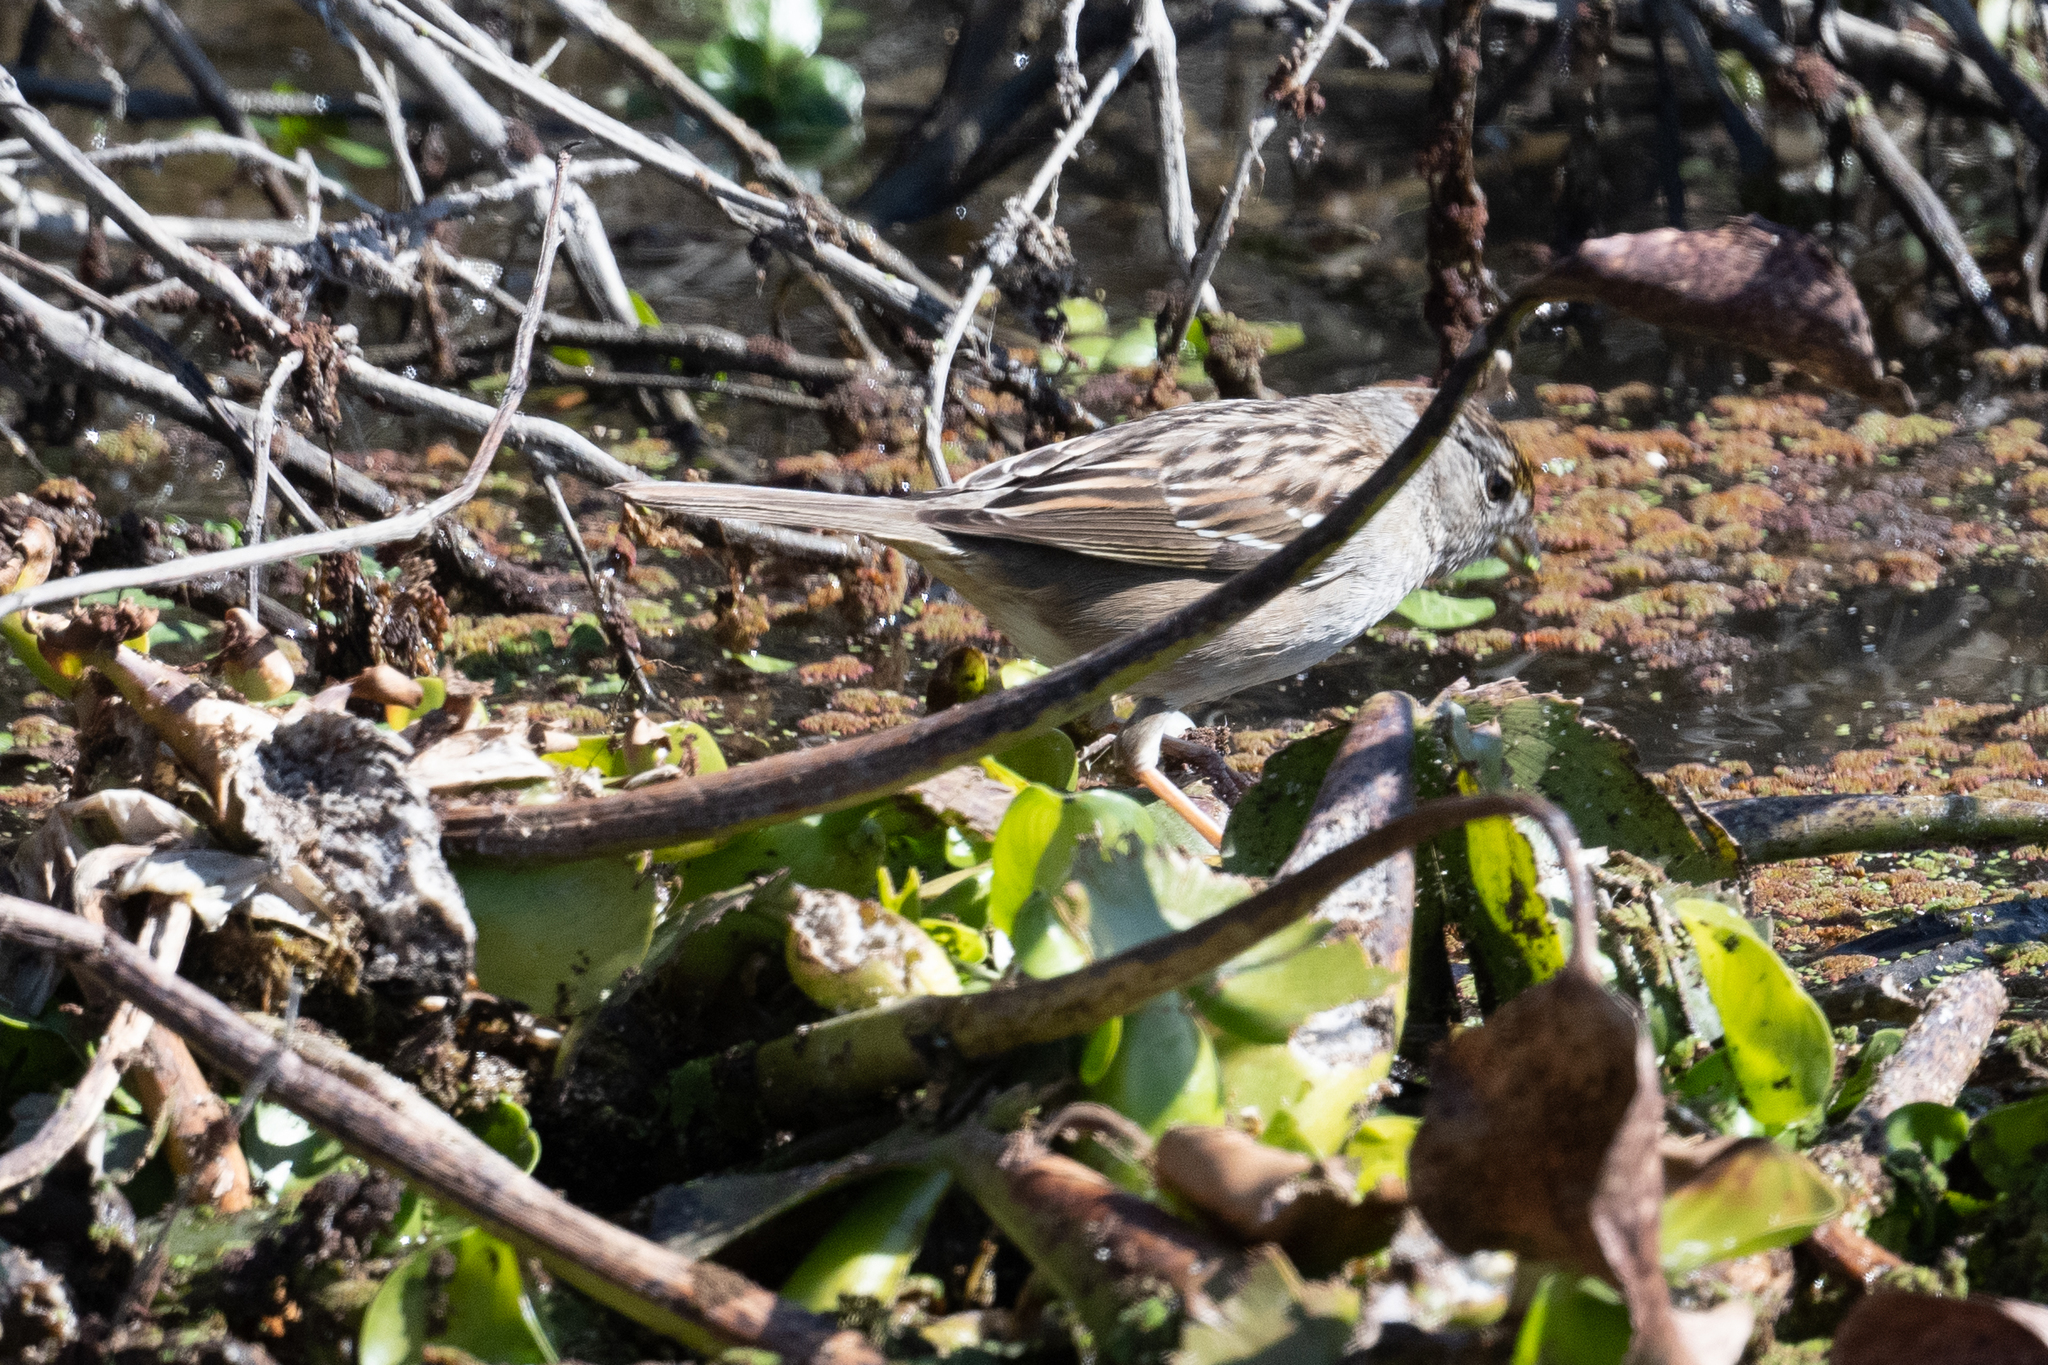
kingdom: Animalia
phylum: Chordata
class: Aves
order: Passeriformes
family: Passerellidae
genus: Zonotrichia
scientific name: Zonotrichia atricapilla
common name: Golden-crowned sparrow
